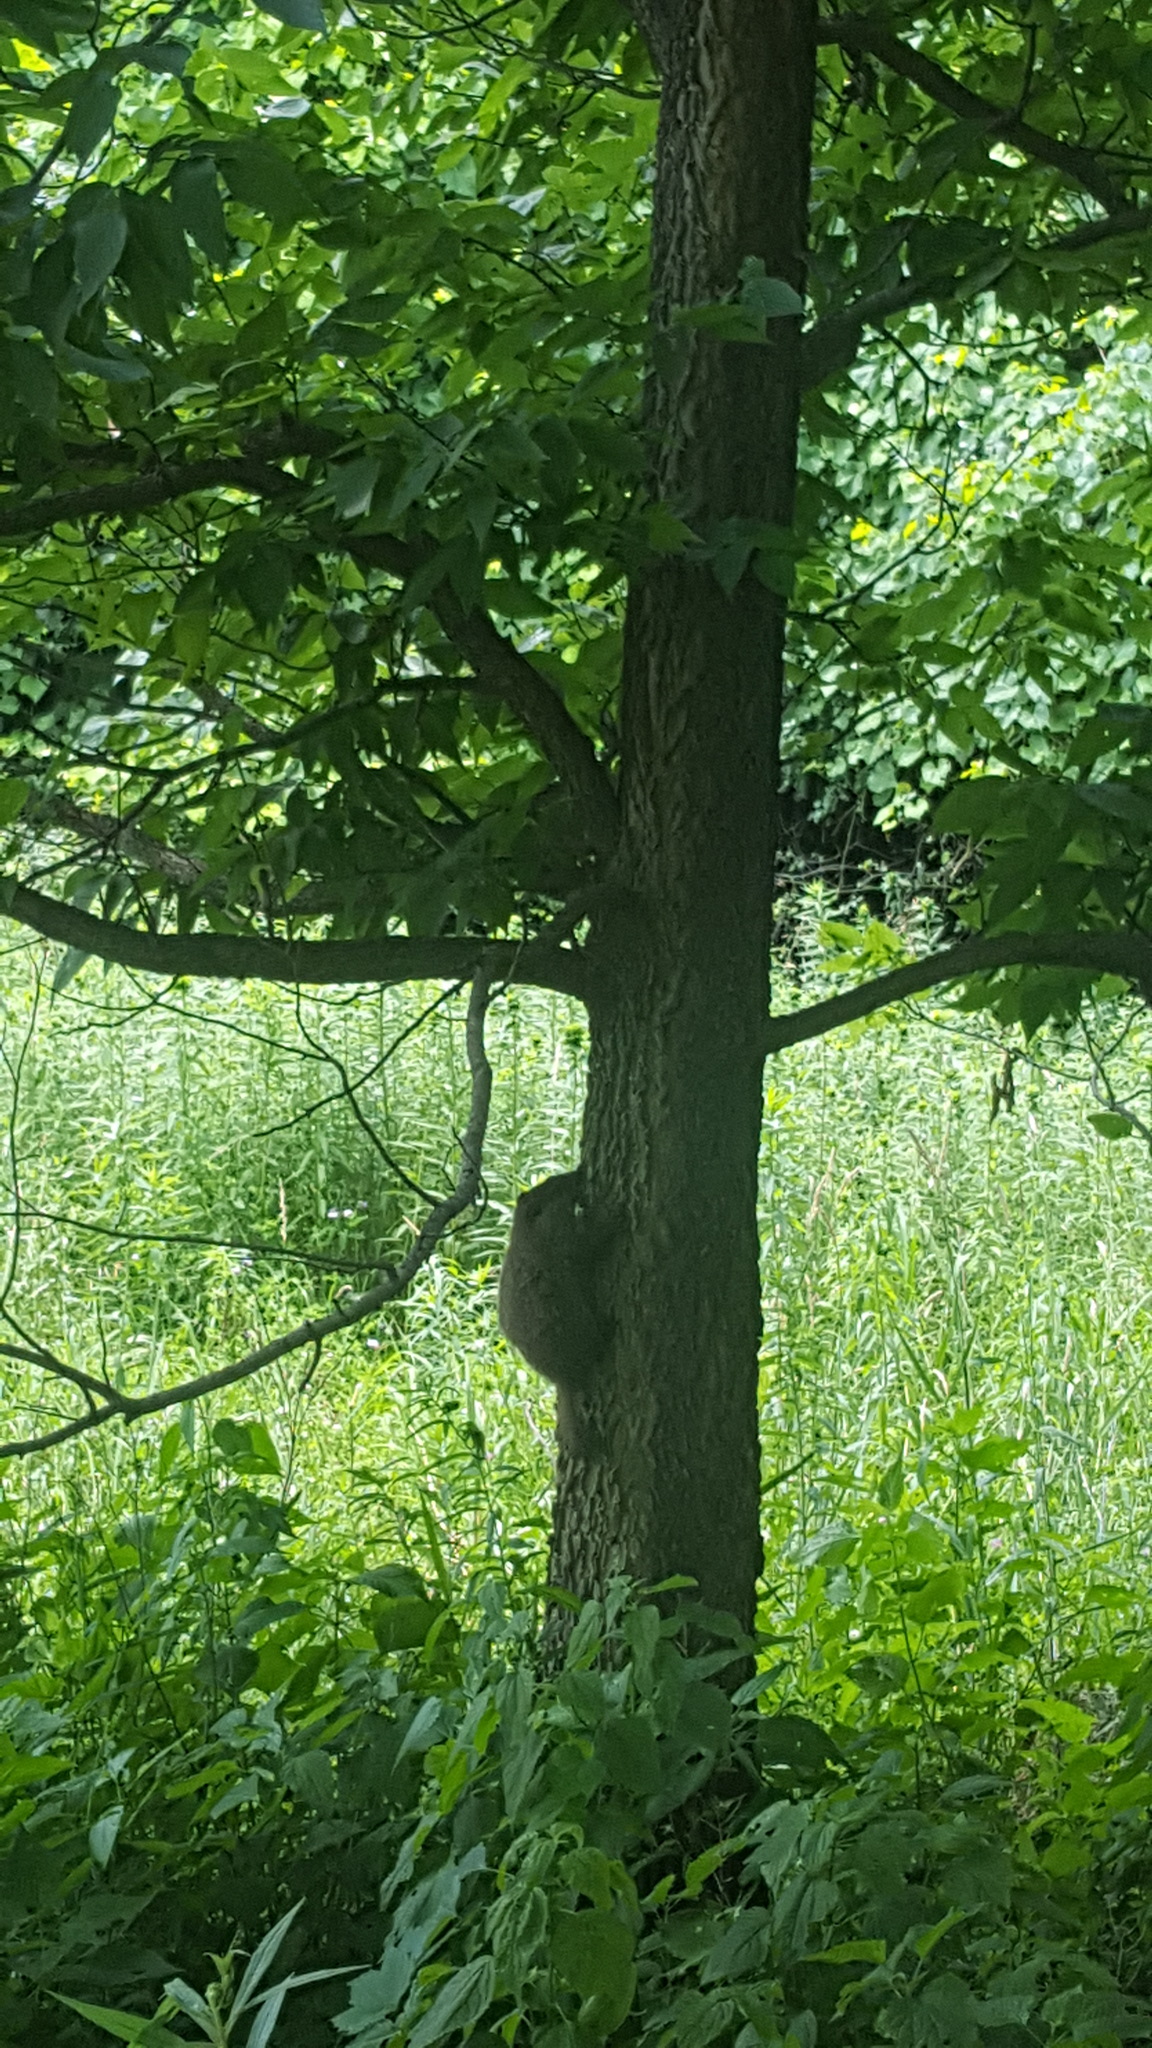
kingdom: Animalia
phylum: Chordata
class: Mammalia
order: Rodentia
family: Sciuridae
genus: Marmota
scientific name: Marmota monax
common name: Groundhog
